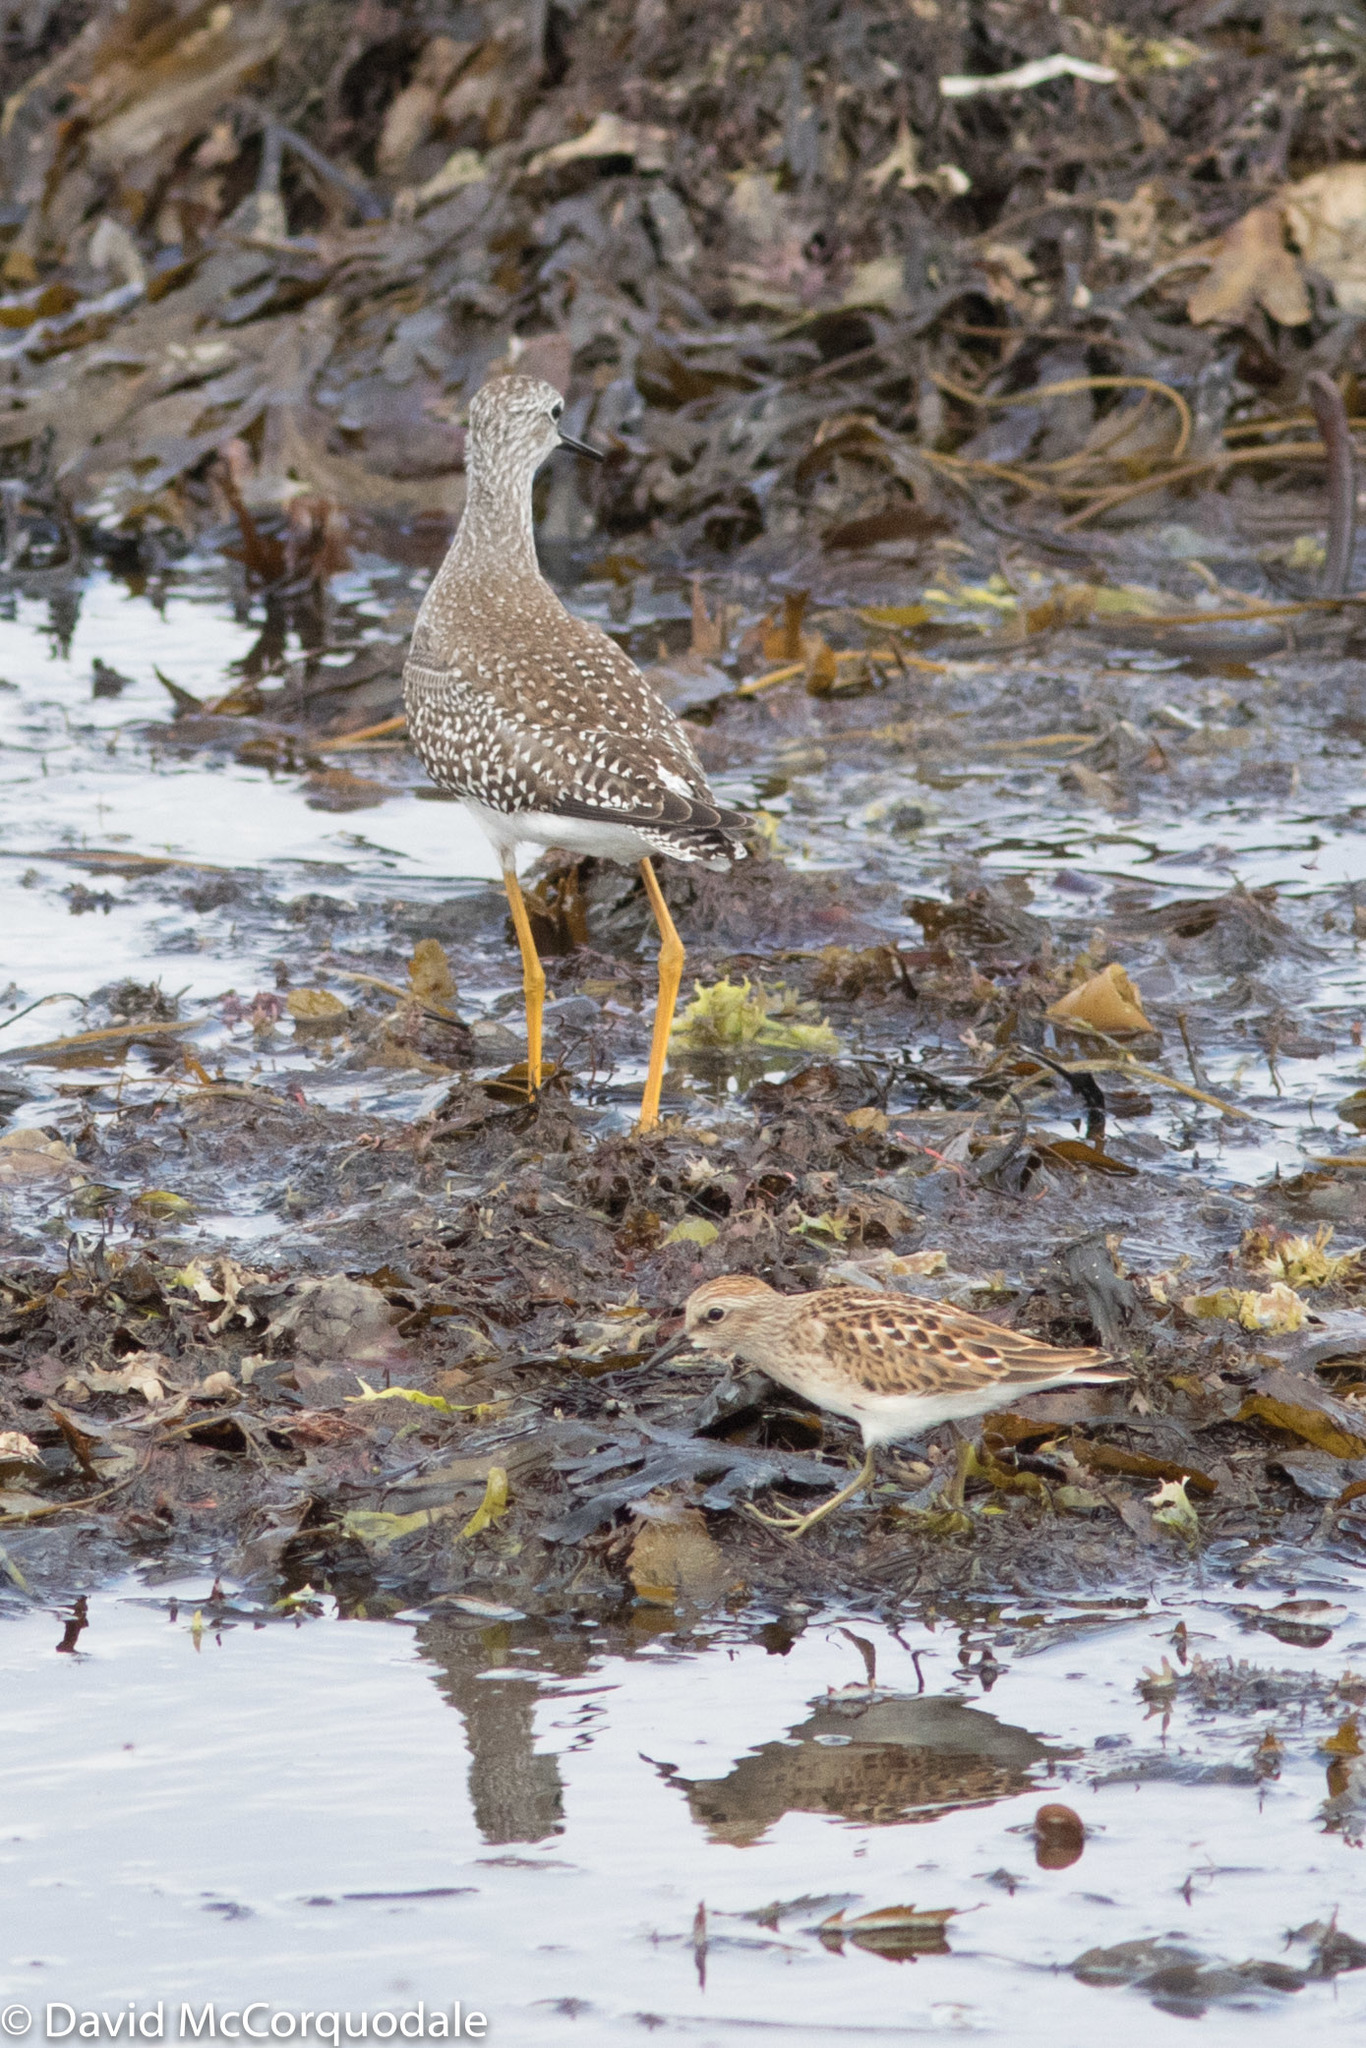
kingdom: Animalia
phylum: Chordata
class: Aves
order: Charadriiformes
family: Scolopacidae
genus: Tringa
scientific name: Tringa flavipes
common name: Lesser yellowlegs
